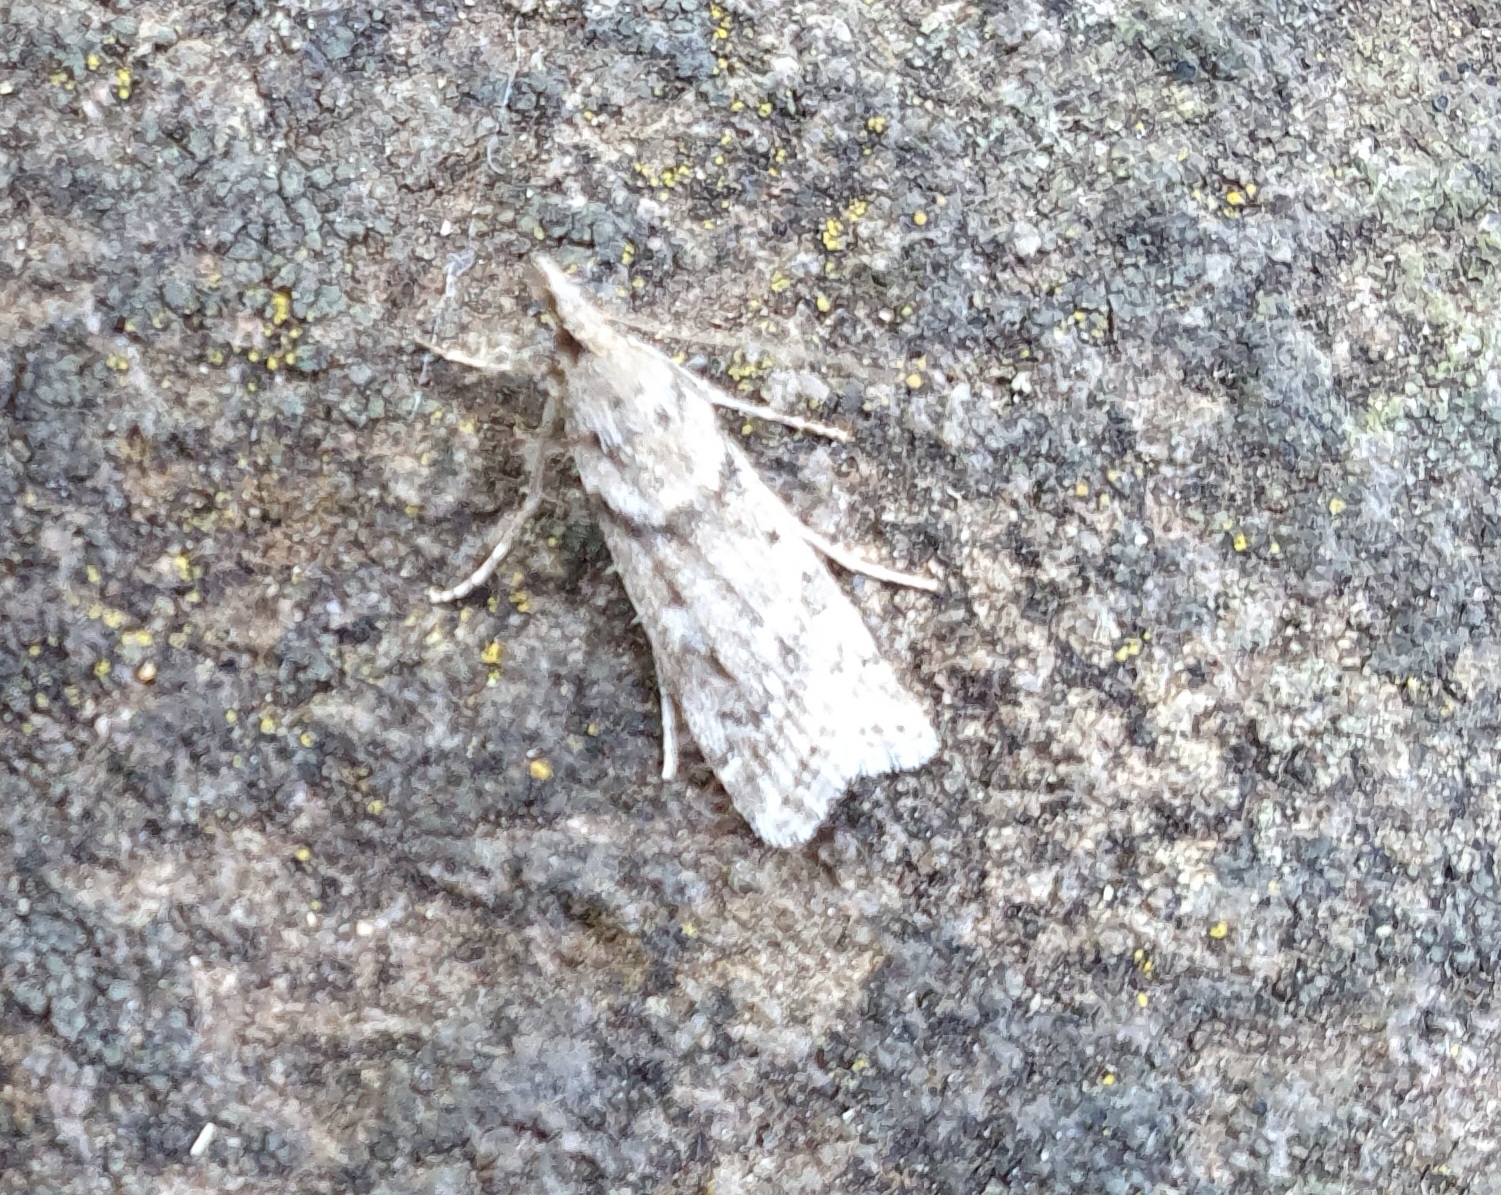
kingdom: Animalia
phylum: Arthropoda
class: Insecta
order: Lepidoptera
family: Crambidae
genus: Eudonia
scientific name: Eudonia angustea
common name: Narrow-winged grey
